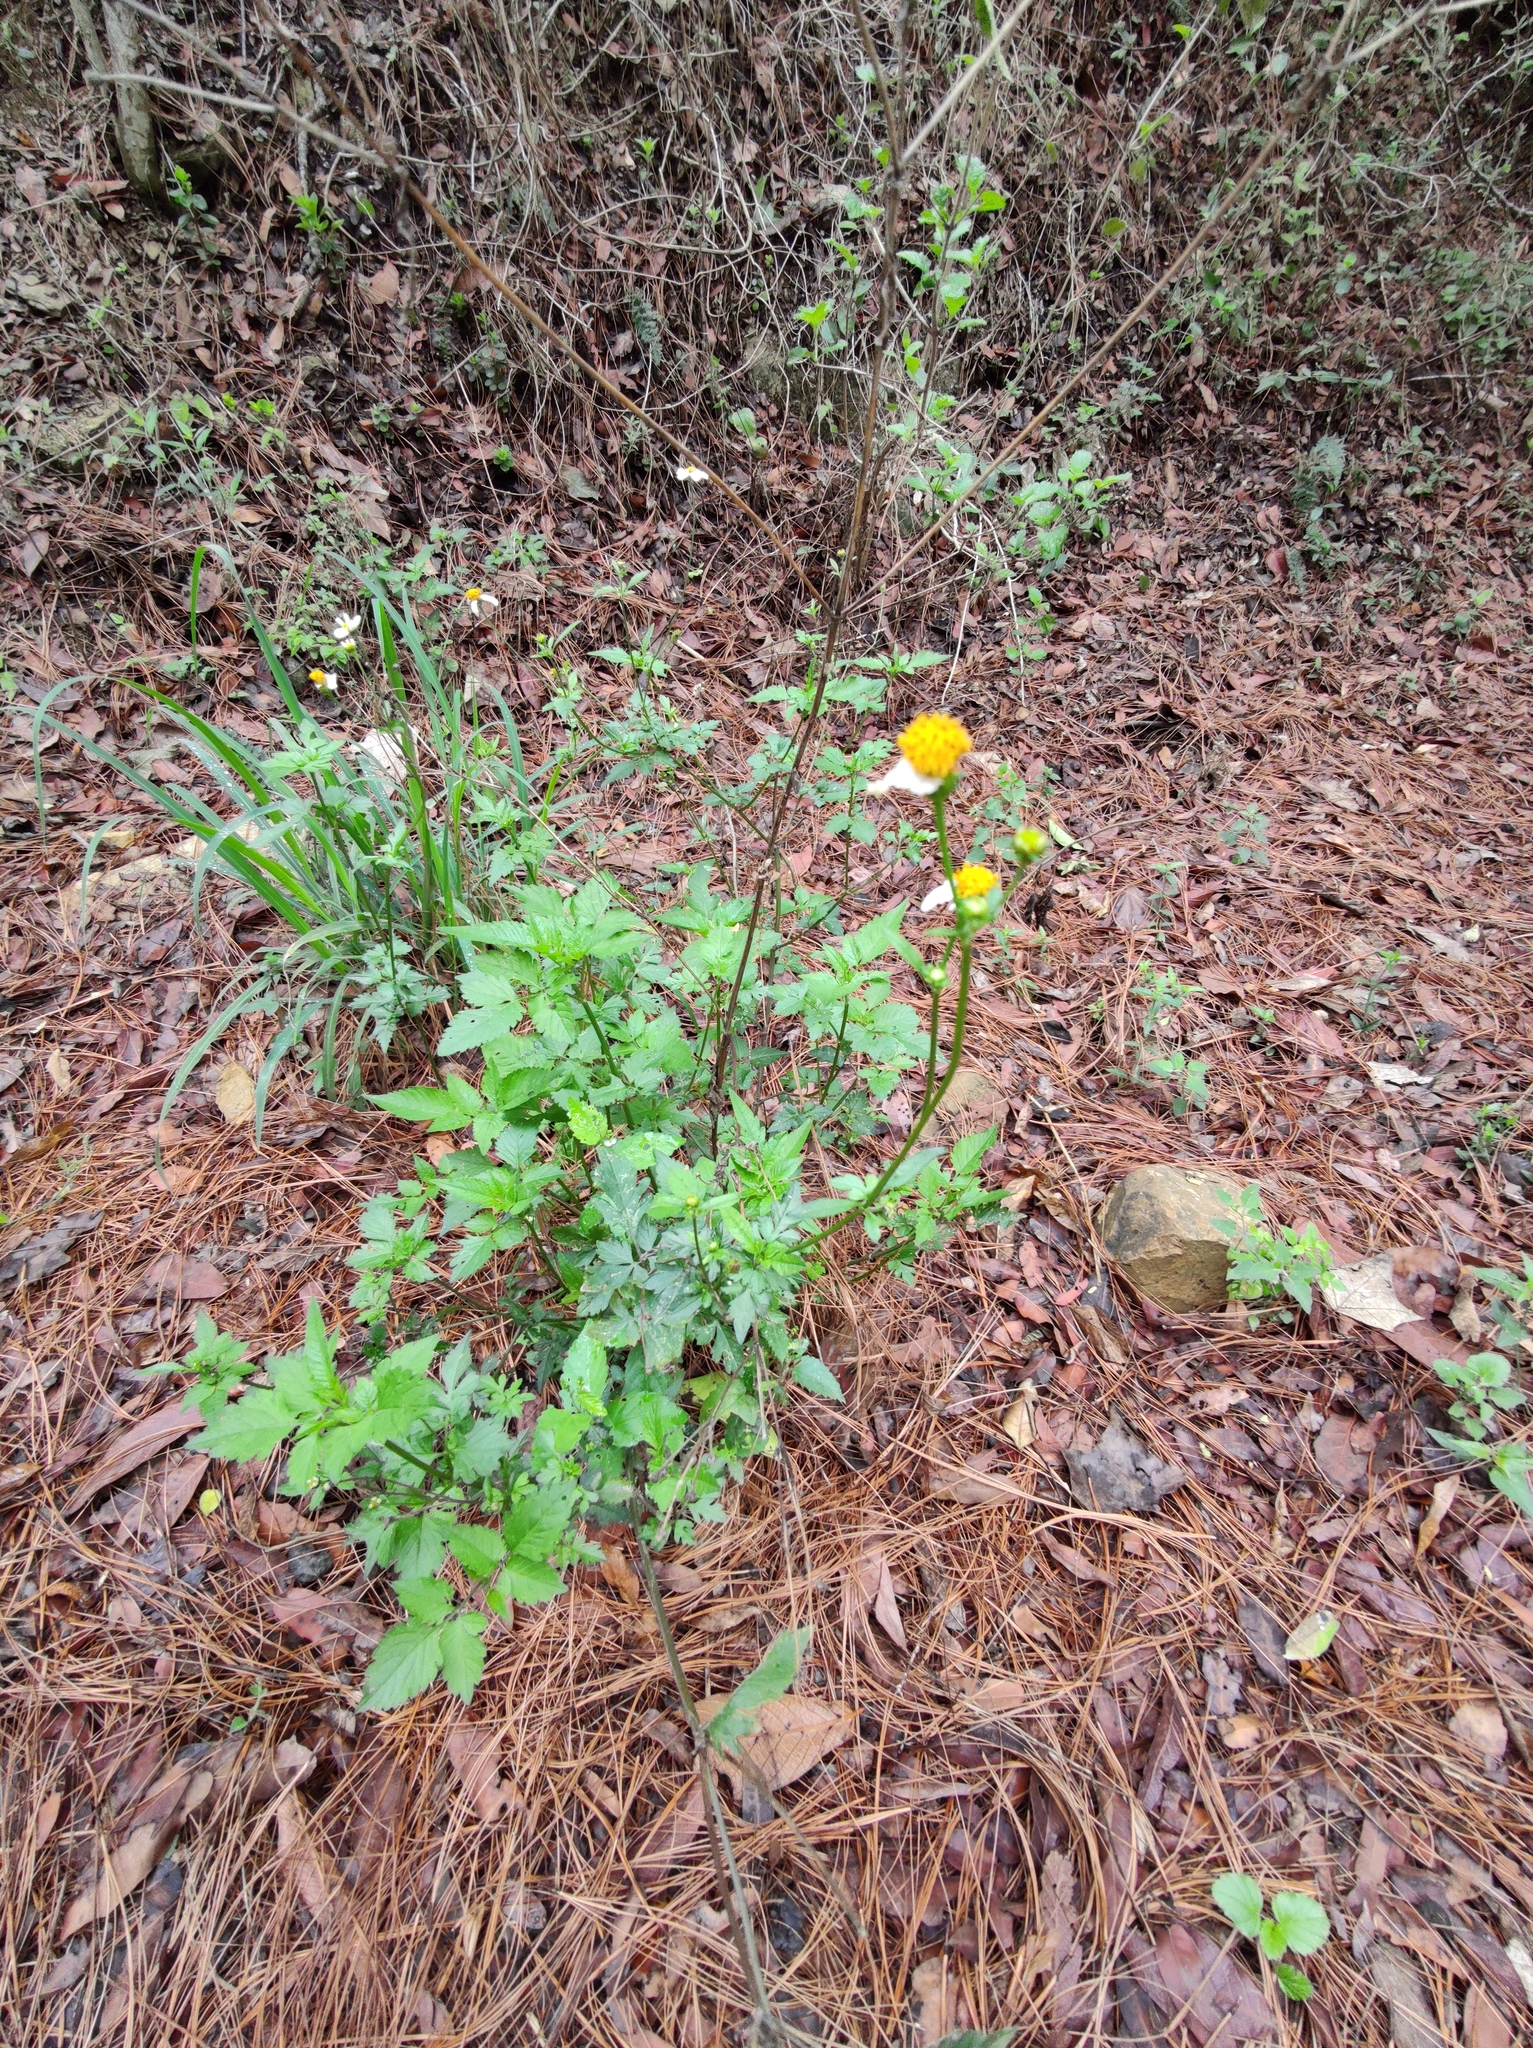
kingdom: Plantae
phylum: Tracheophyta
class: Magnoliopsida
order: Asterales
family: Asteraceae
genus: Bidens
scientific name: Bidens pilosa
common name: Black-jack
